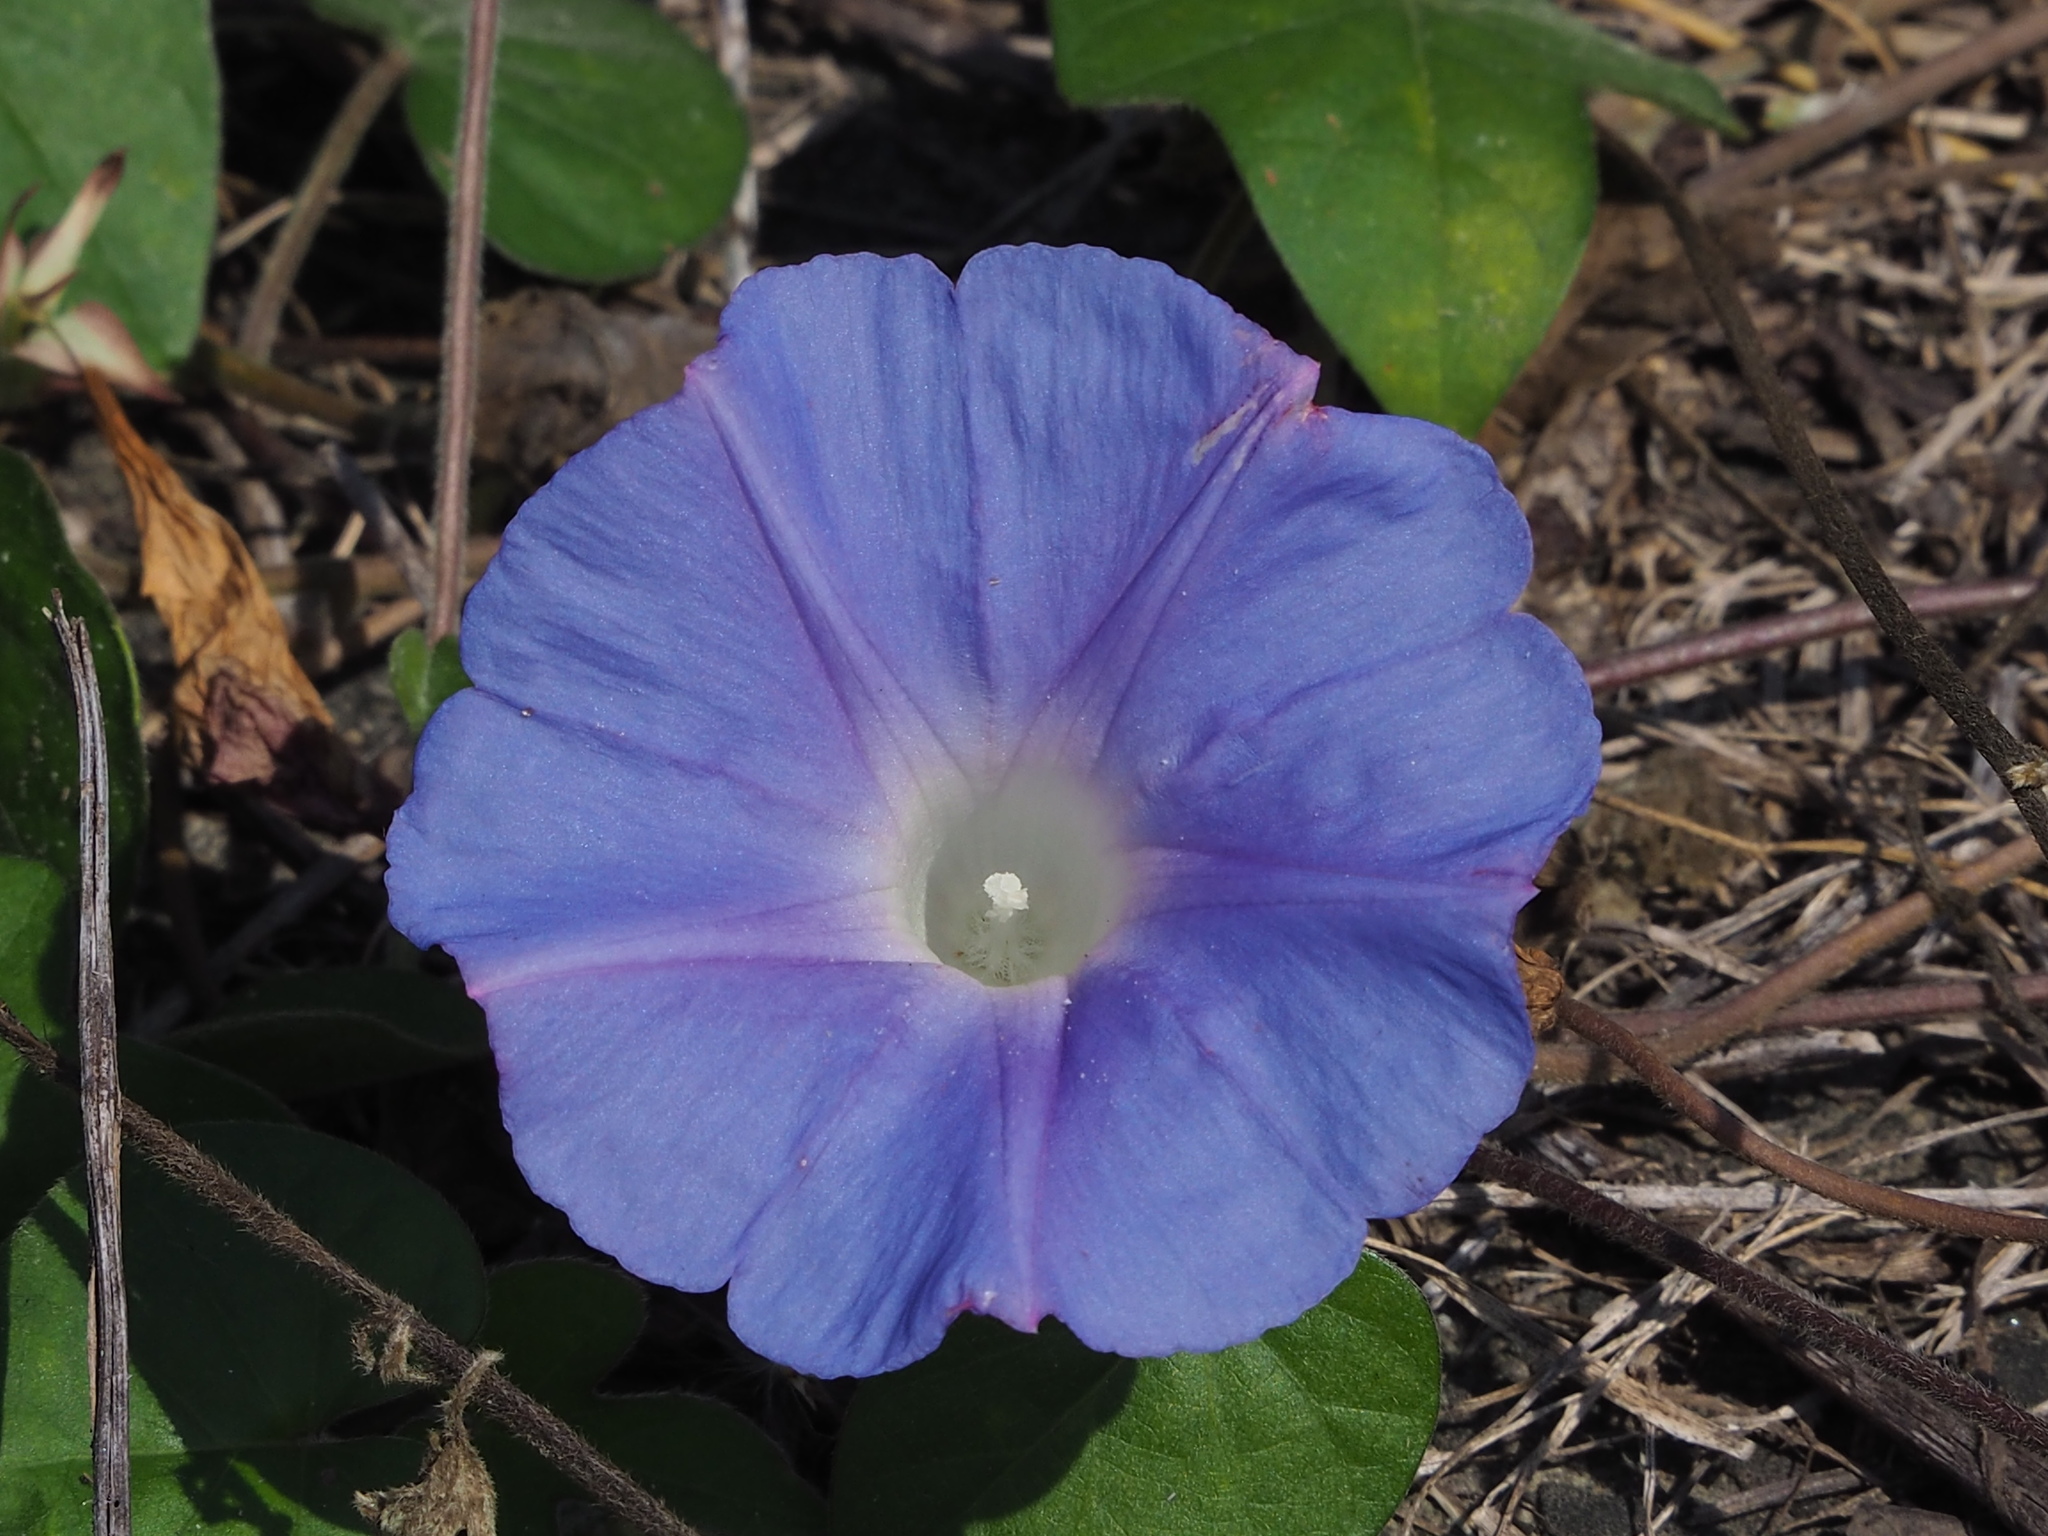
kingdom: Plantae
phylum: Tracheophyta
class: Magnoliopsida
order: Solanales
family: Convolvulaceae
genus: Ipomoea
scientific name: Ipomoea indica
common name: Blue dawnflower
